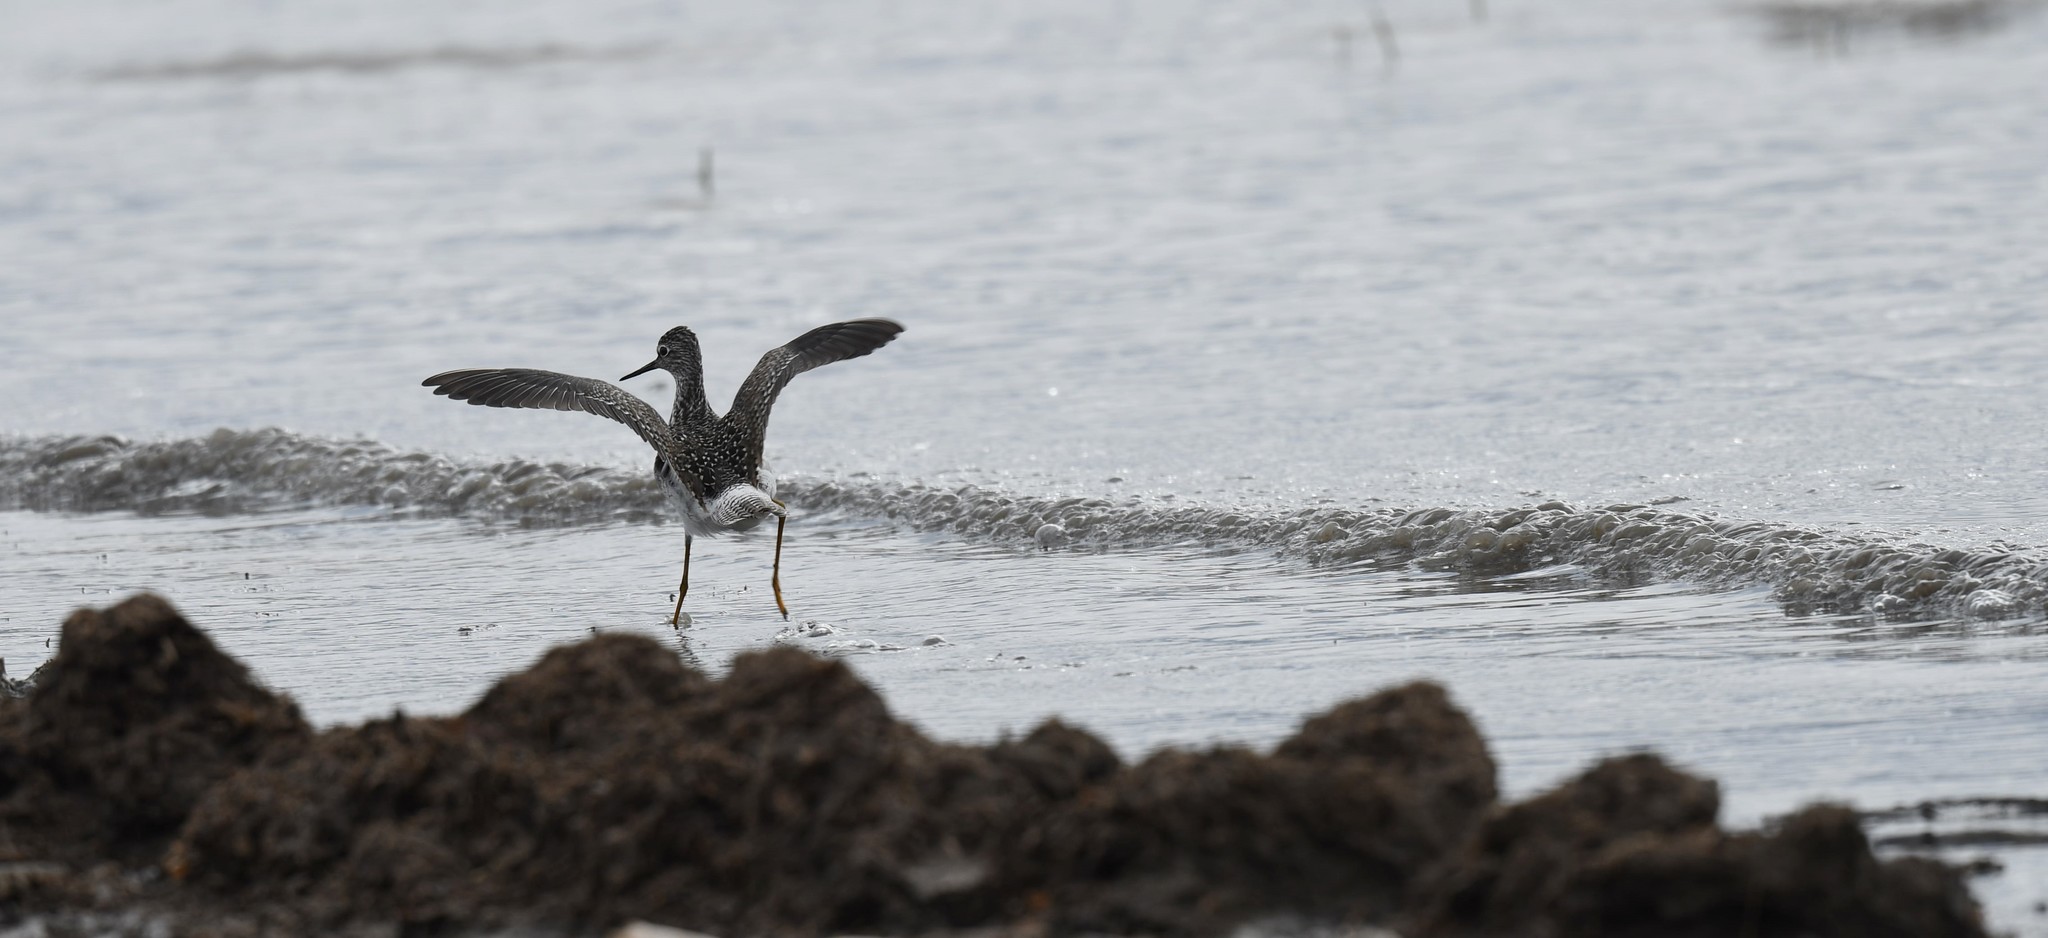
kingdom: Animalia
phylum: Chordata
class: Aves
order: Charadriiformes
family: Scolopacidae
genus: Tringa
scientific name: Tringa flavipes
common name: Lesser yellowlegs
